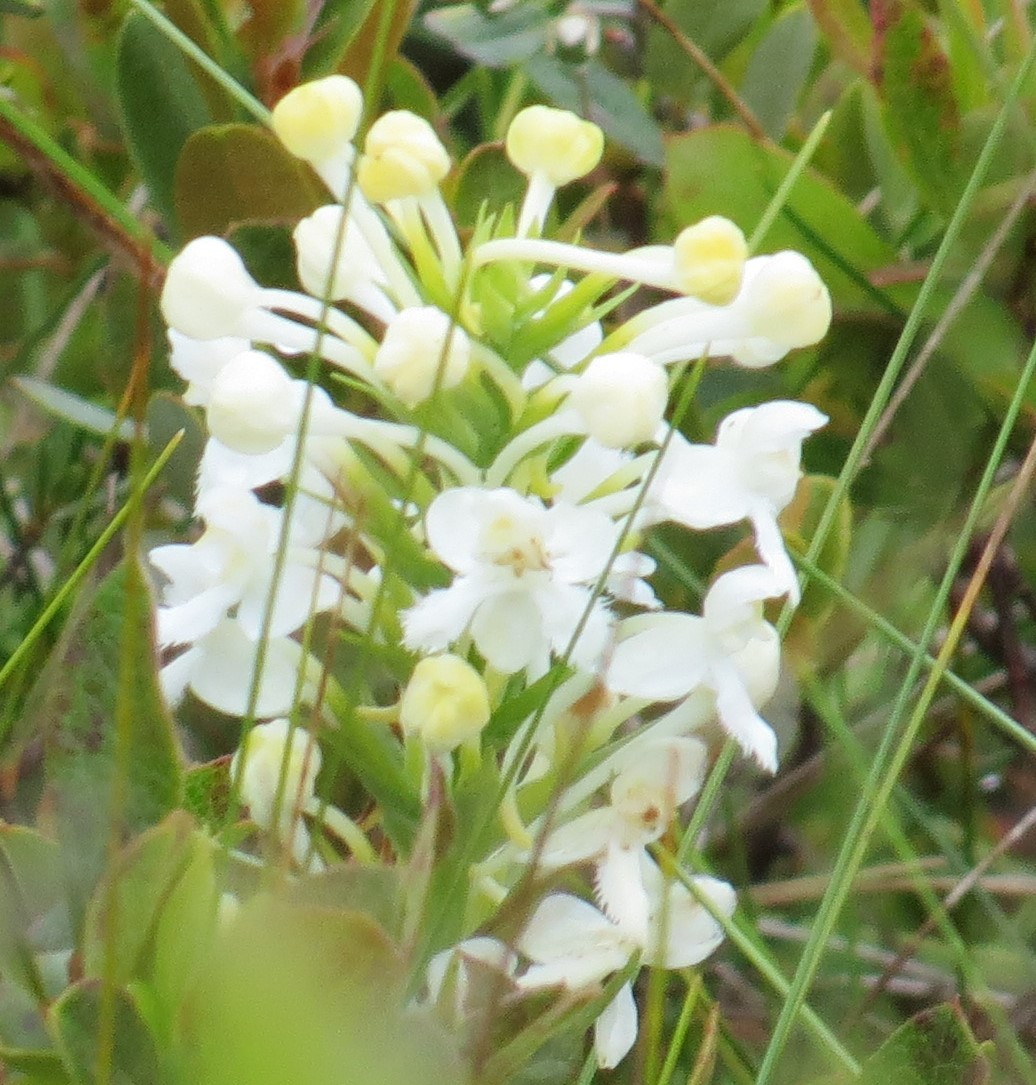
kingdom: Plantae
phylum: Tracheophyta
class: Liliopsida
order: Asparagales
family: Orchidaceae
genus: Platanthera
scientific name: Platanthera blephariglottis
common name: White fringed orchid
